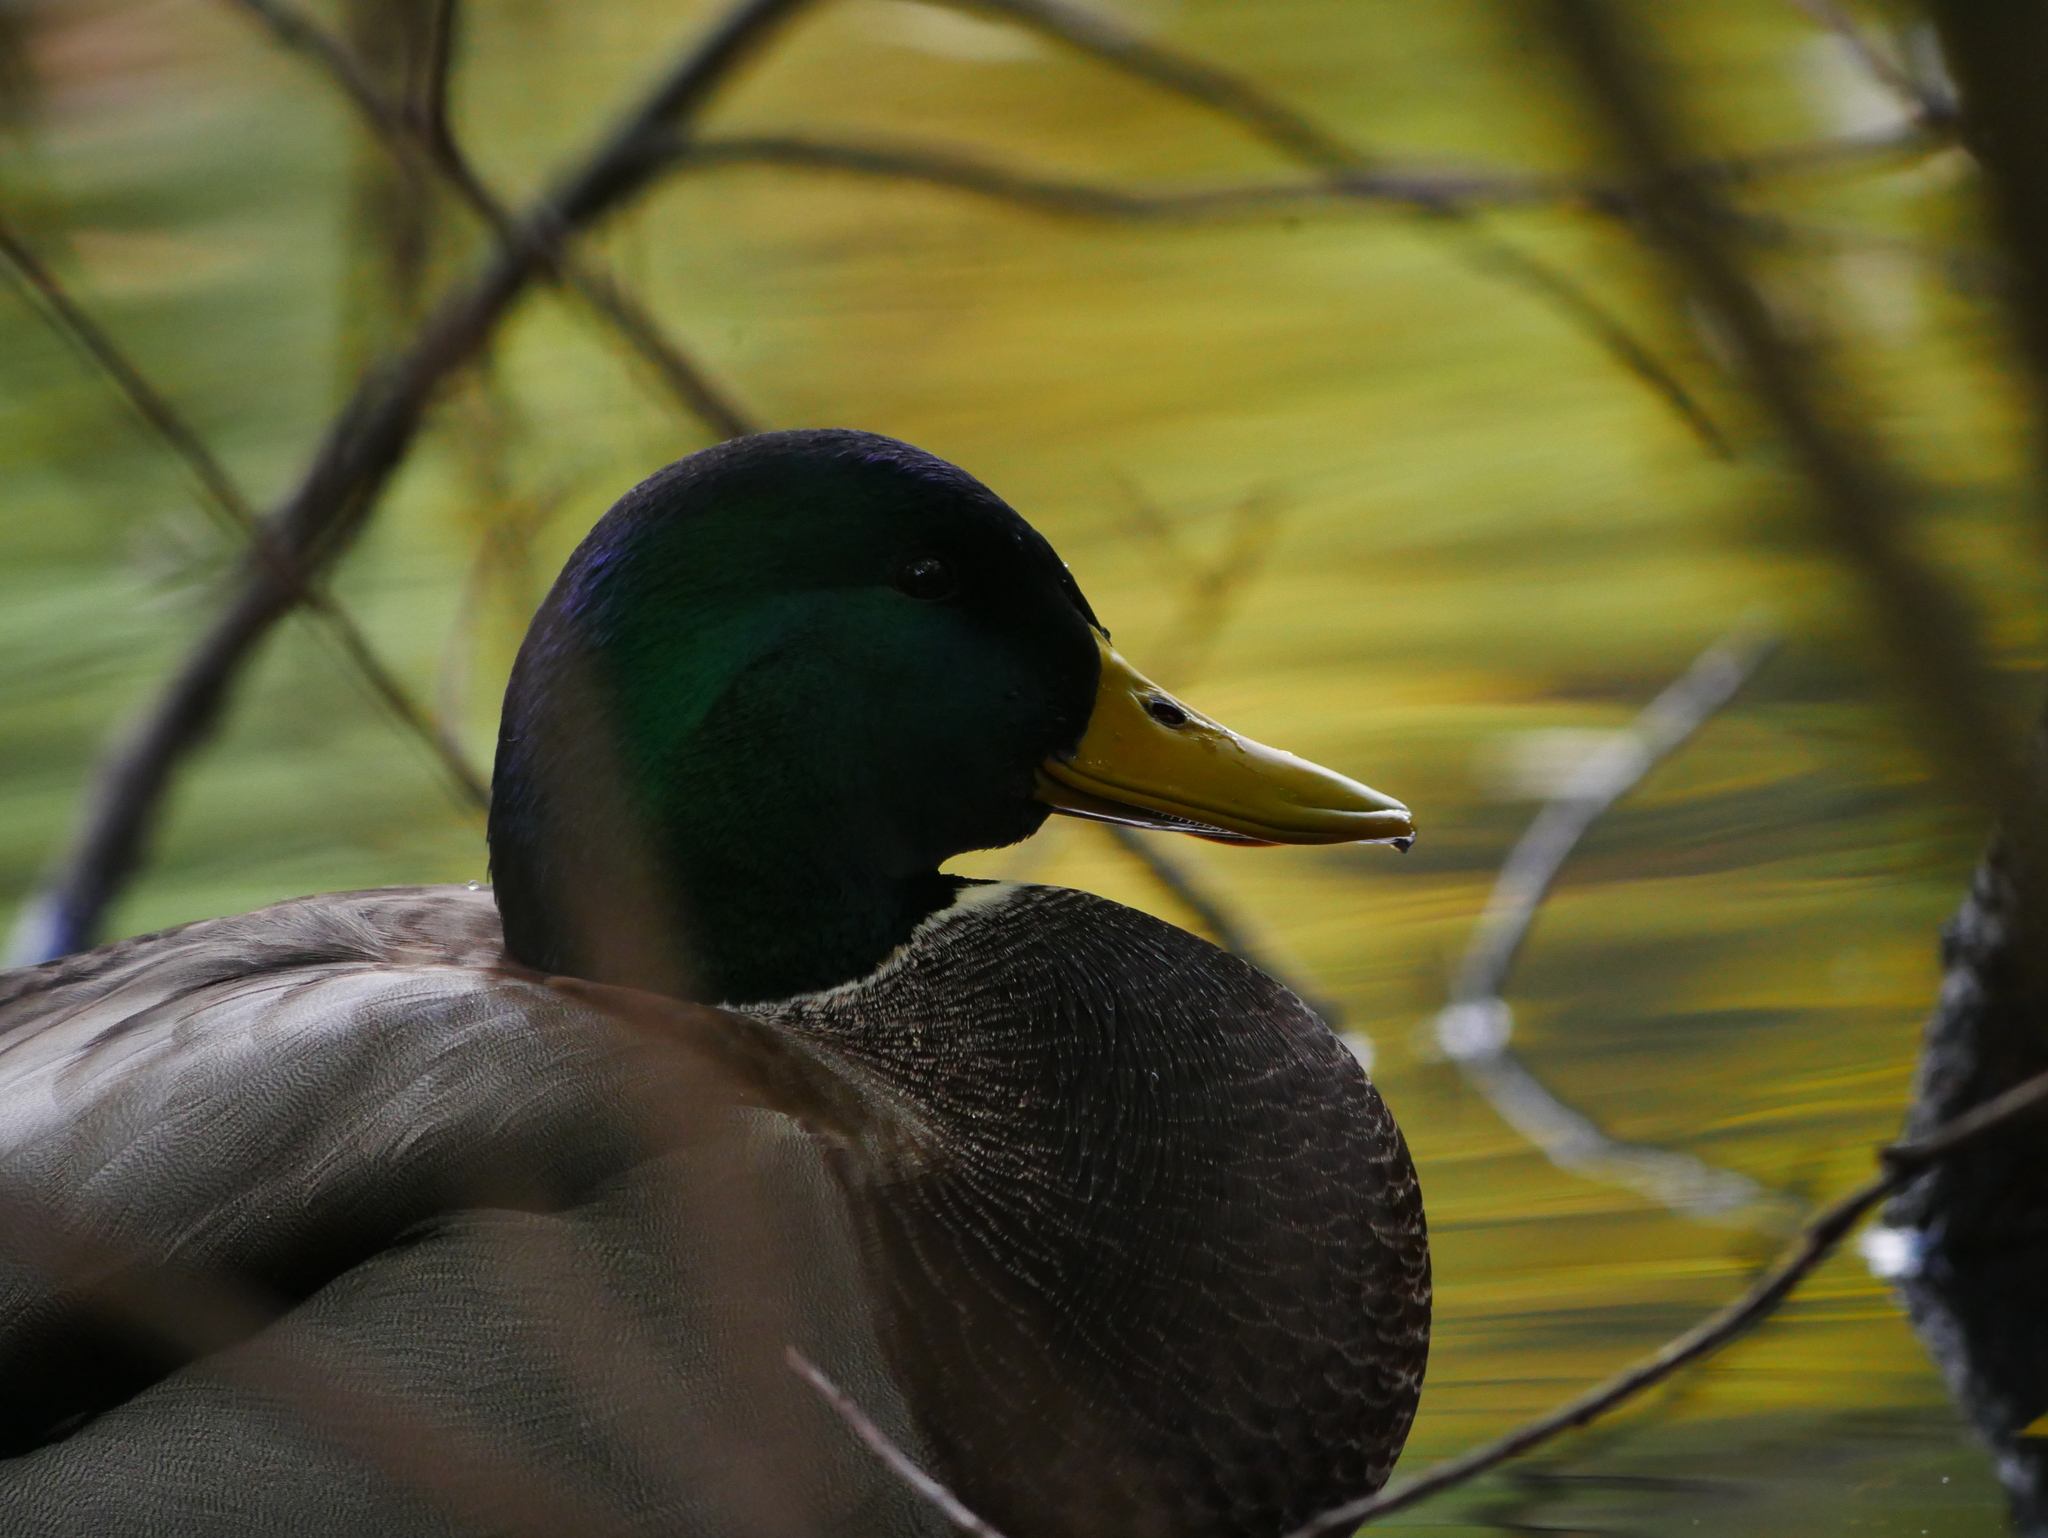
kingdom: Animalia
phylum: Chordata
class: Aves
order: Anseriformes
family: Anatidae
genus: Anas
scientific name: Anas platyrhynchos
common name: Mallard
